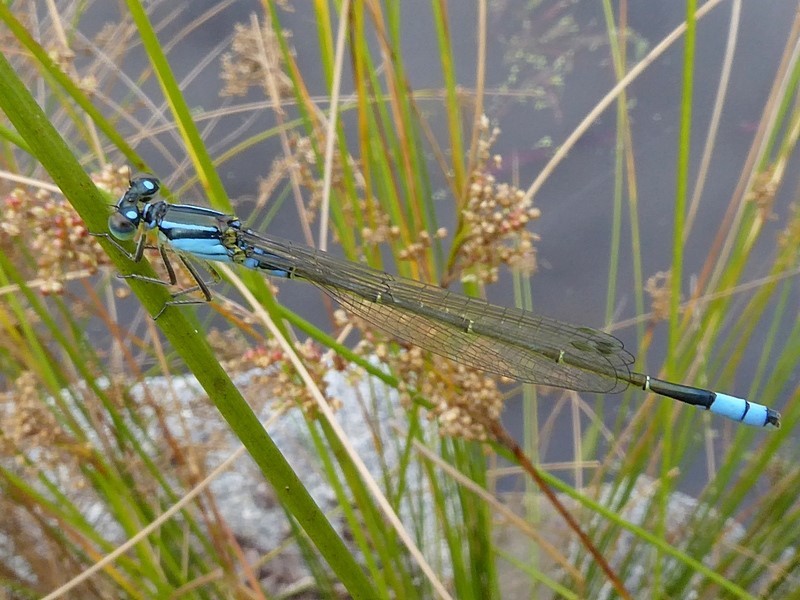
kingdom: Animalia
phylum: Arthropoda
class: Insecta
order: Odonata
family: Coenagrionidae
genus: Ischnura
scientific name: Ischnura heterosticta
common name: Common bluetail
